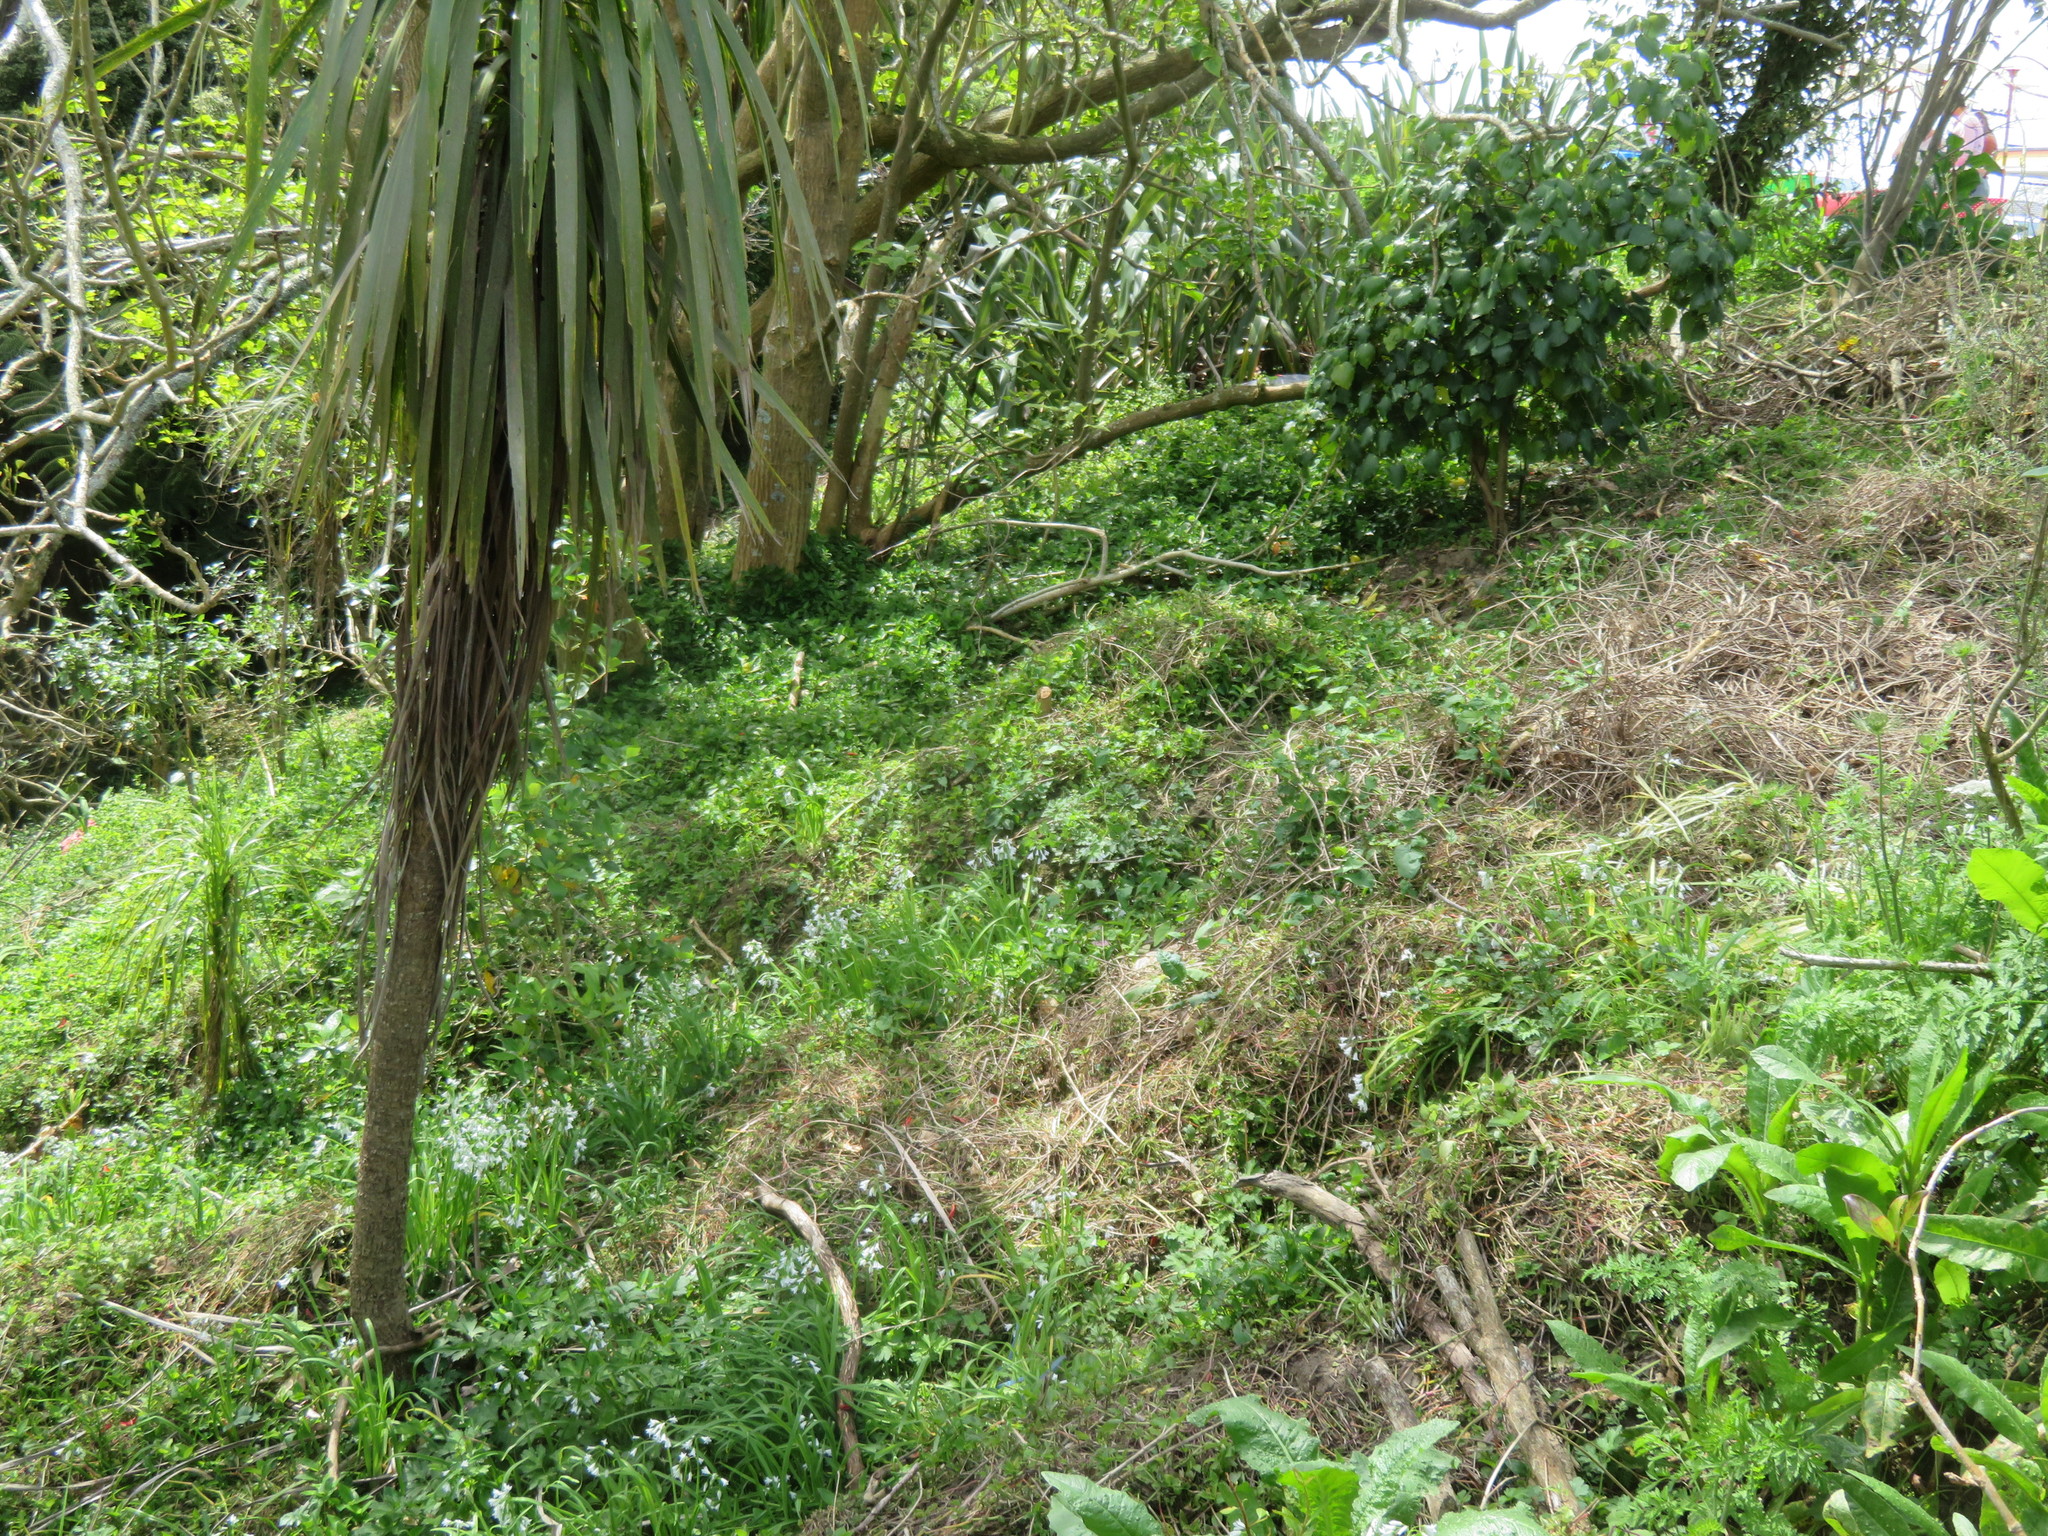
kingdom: Plantae
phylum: Tracheophyta
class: Magnoliopsida
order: Ranunculales
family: Ranunculaceae
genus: Ranunculus
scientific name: Ranunculus repens
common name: Creeping buttercup
